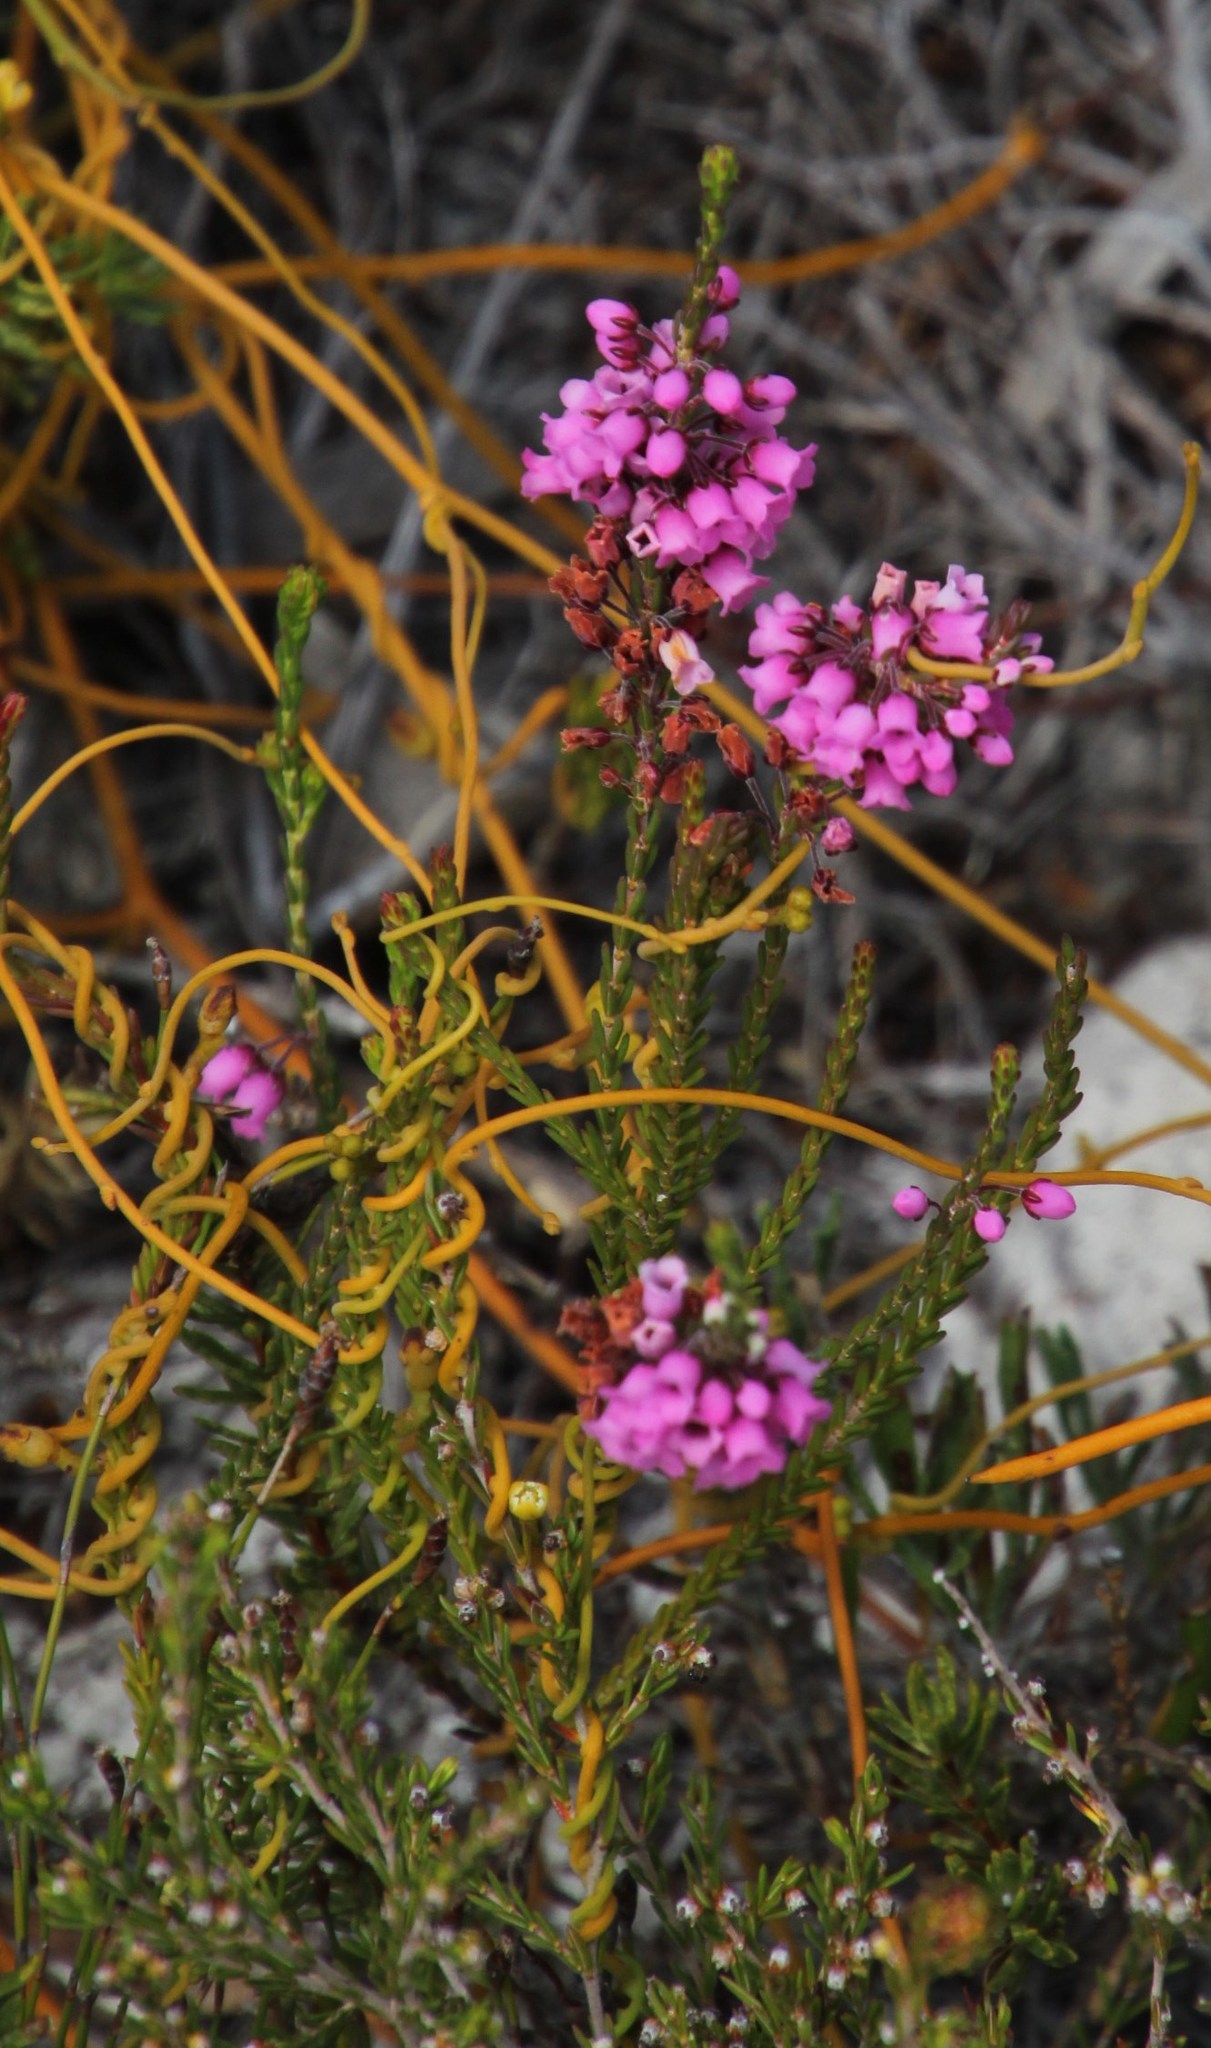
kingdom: Plantae
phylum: Tracheophyta
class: Magnoliopsida
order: Ericales
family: Ericaceae
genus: Erica
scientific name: Erica pulchella
